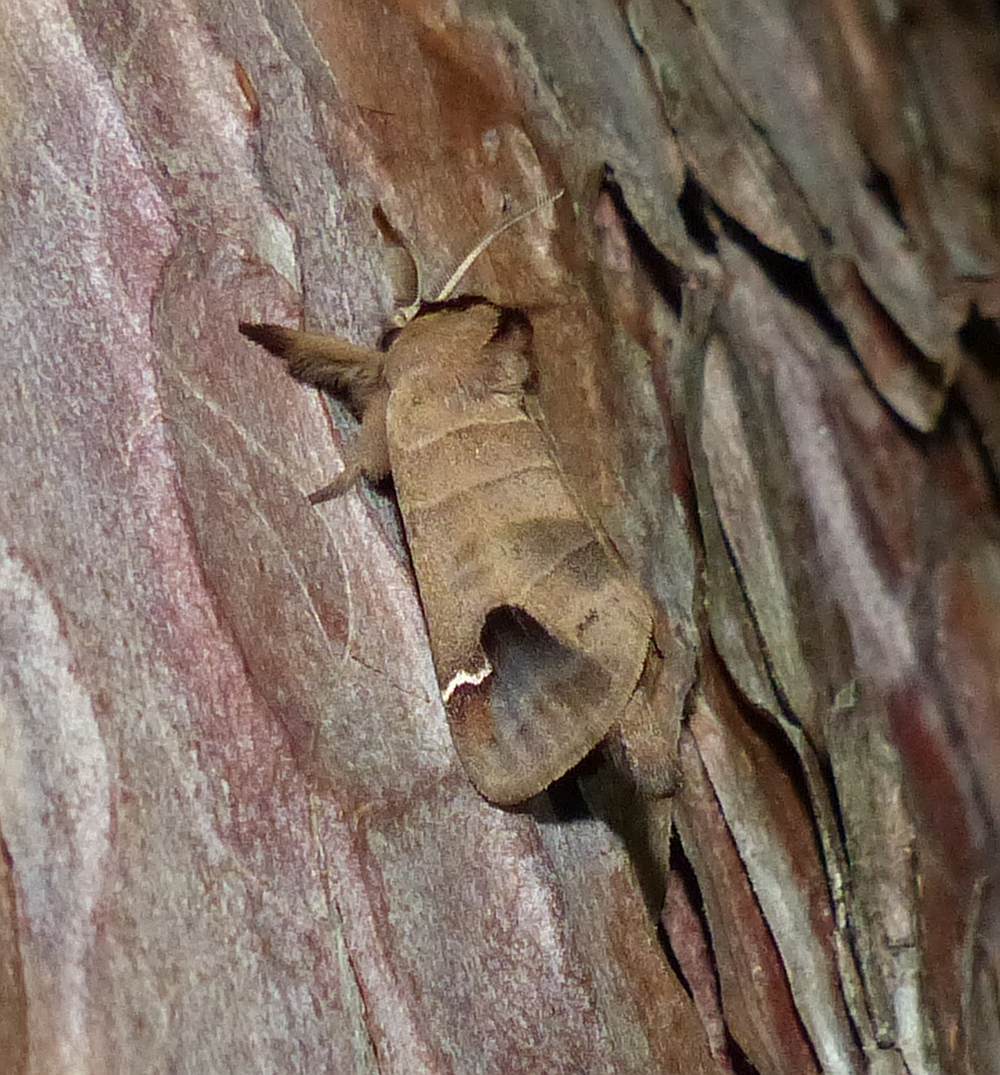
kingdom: Animalia
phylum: Arthropoda
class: Insecta
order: Lepidoptera
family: Notodontidae
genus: Clostera
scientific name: Clostera albosigma
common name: Sigmoid prominent
